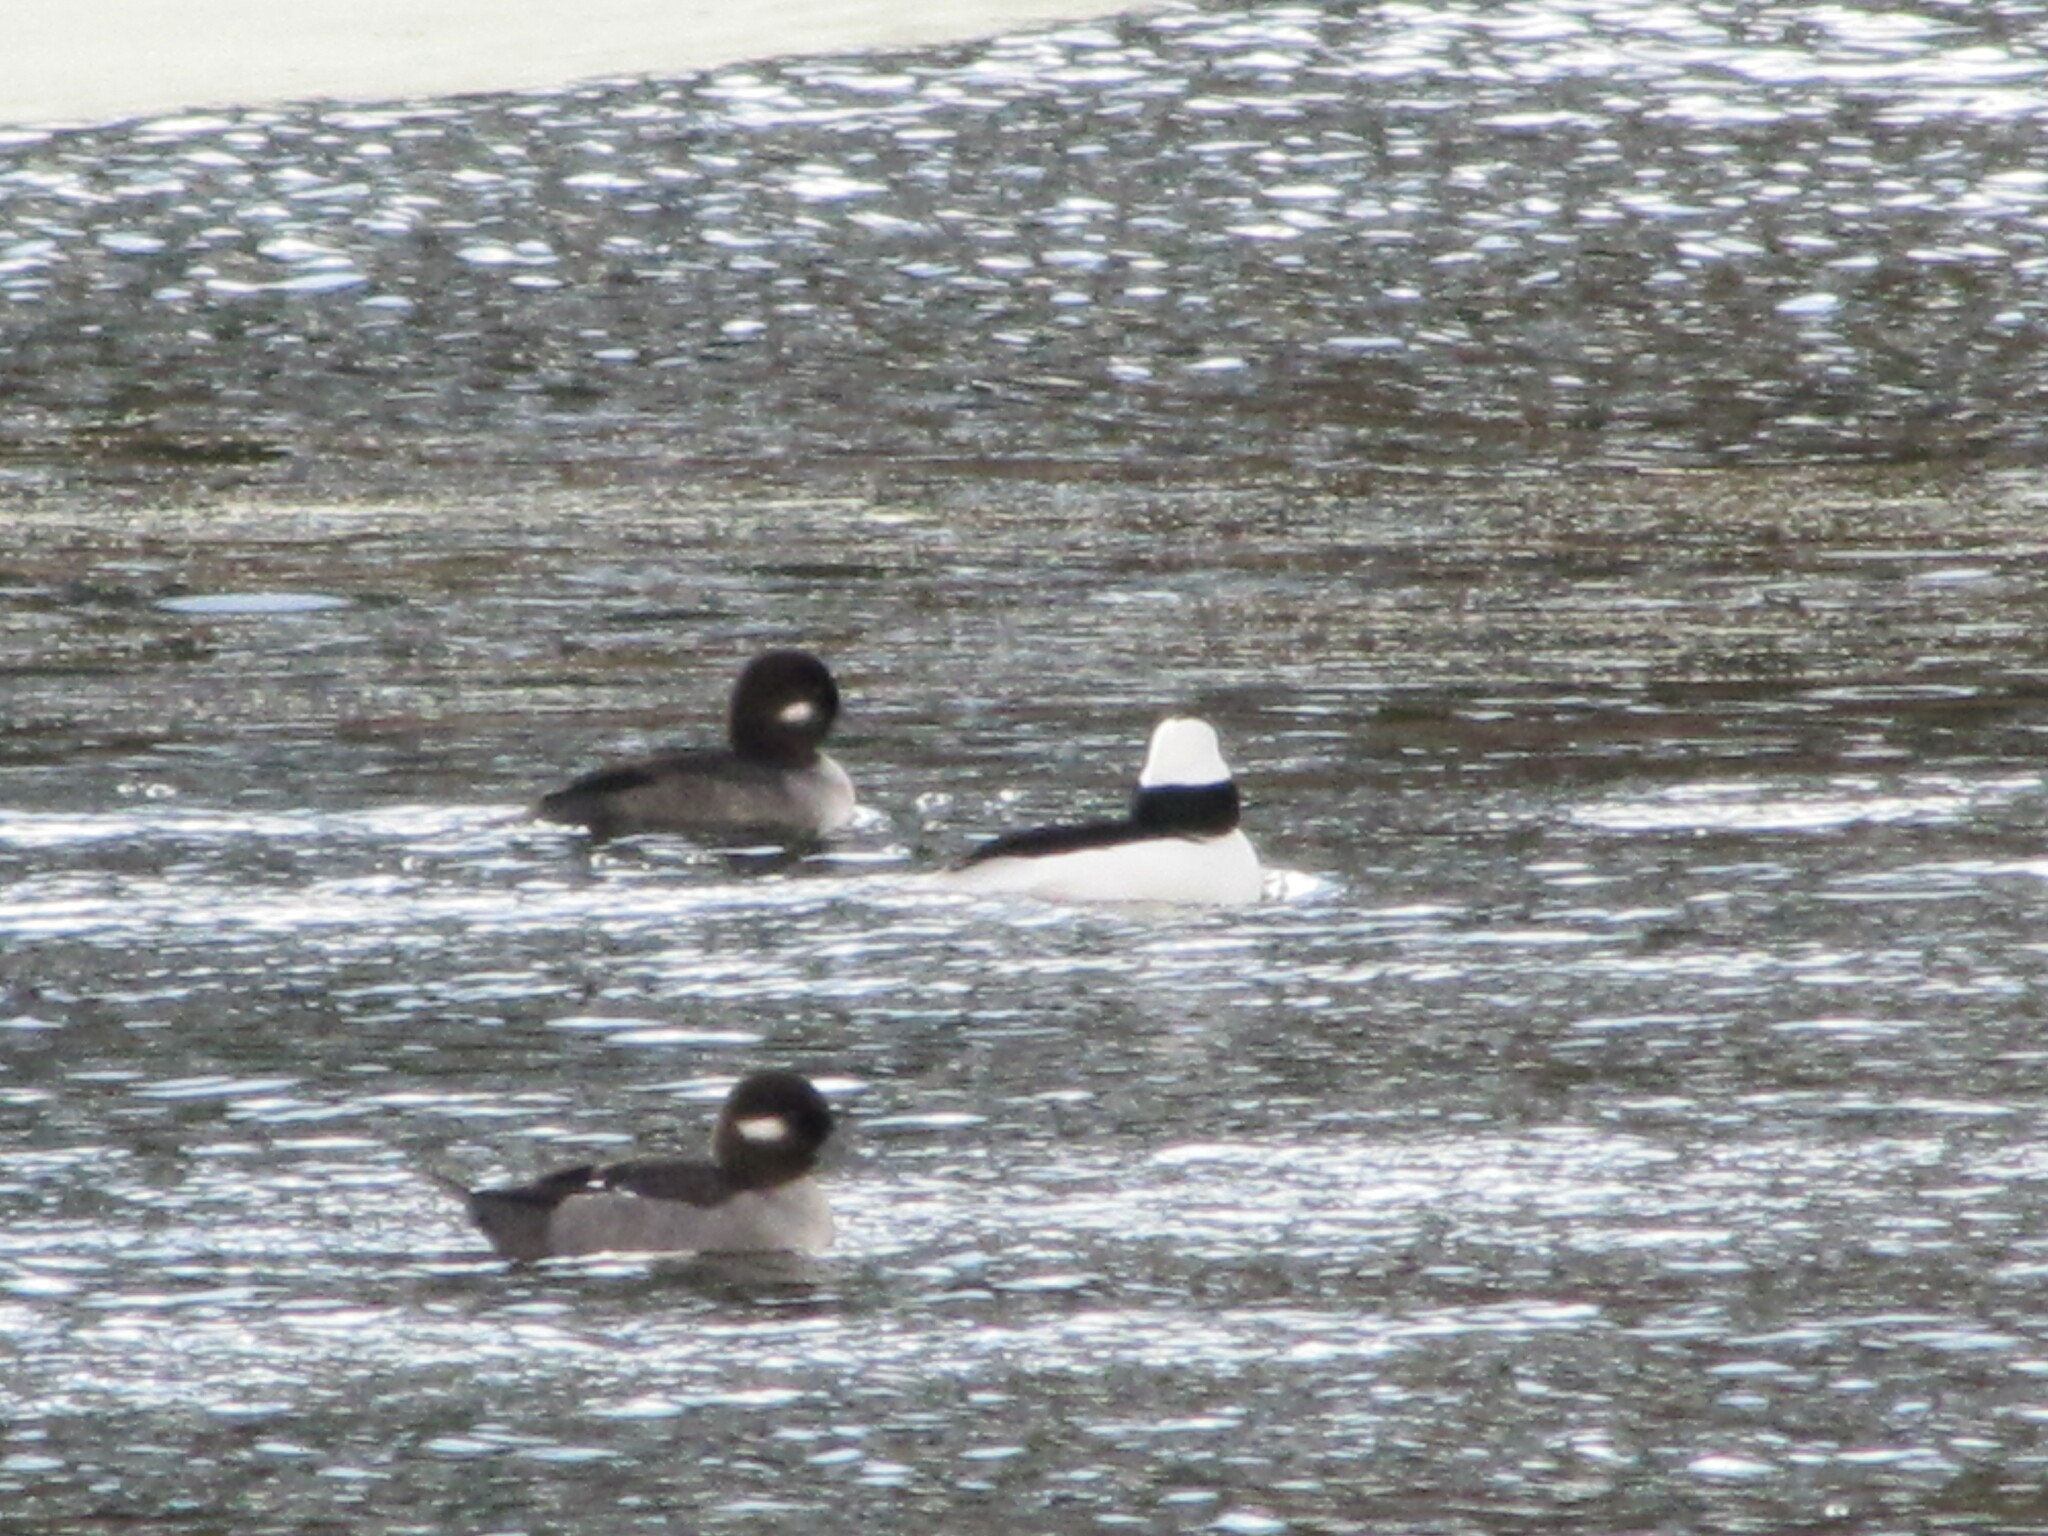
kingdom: Animalia
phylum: Chordata
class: Aves
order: Anseriformes
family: Anatidae
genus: Bucephala
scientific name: Bucephala albeola
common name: Bufflehead
